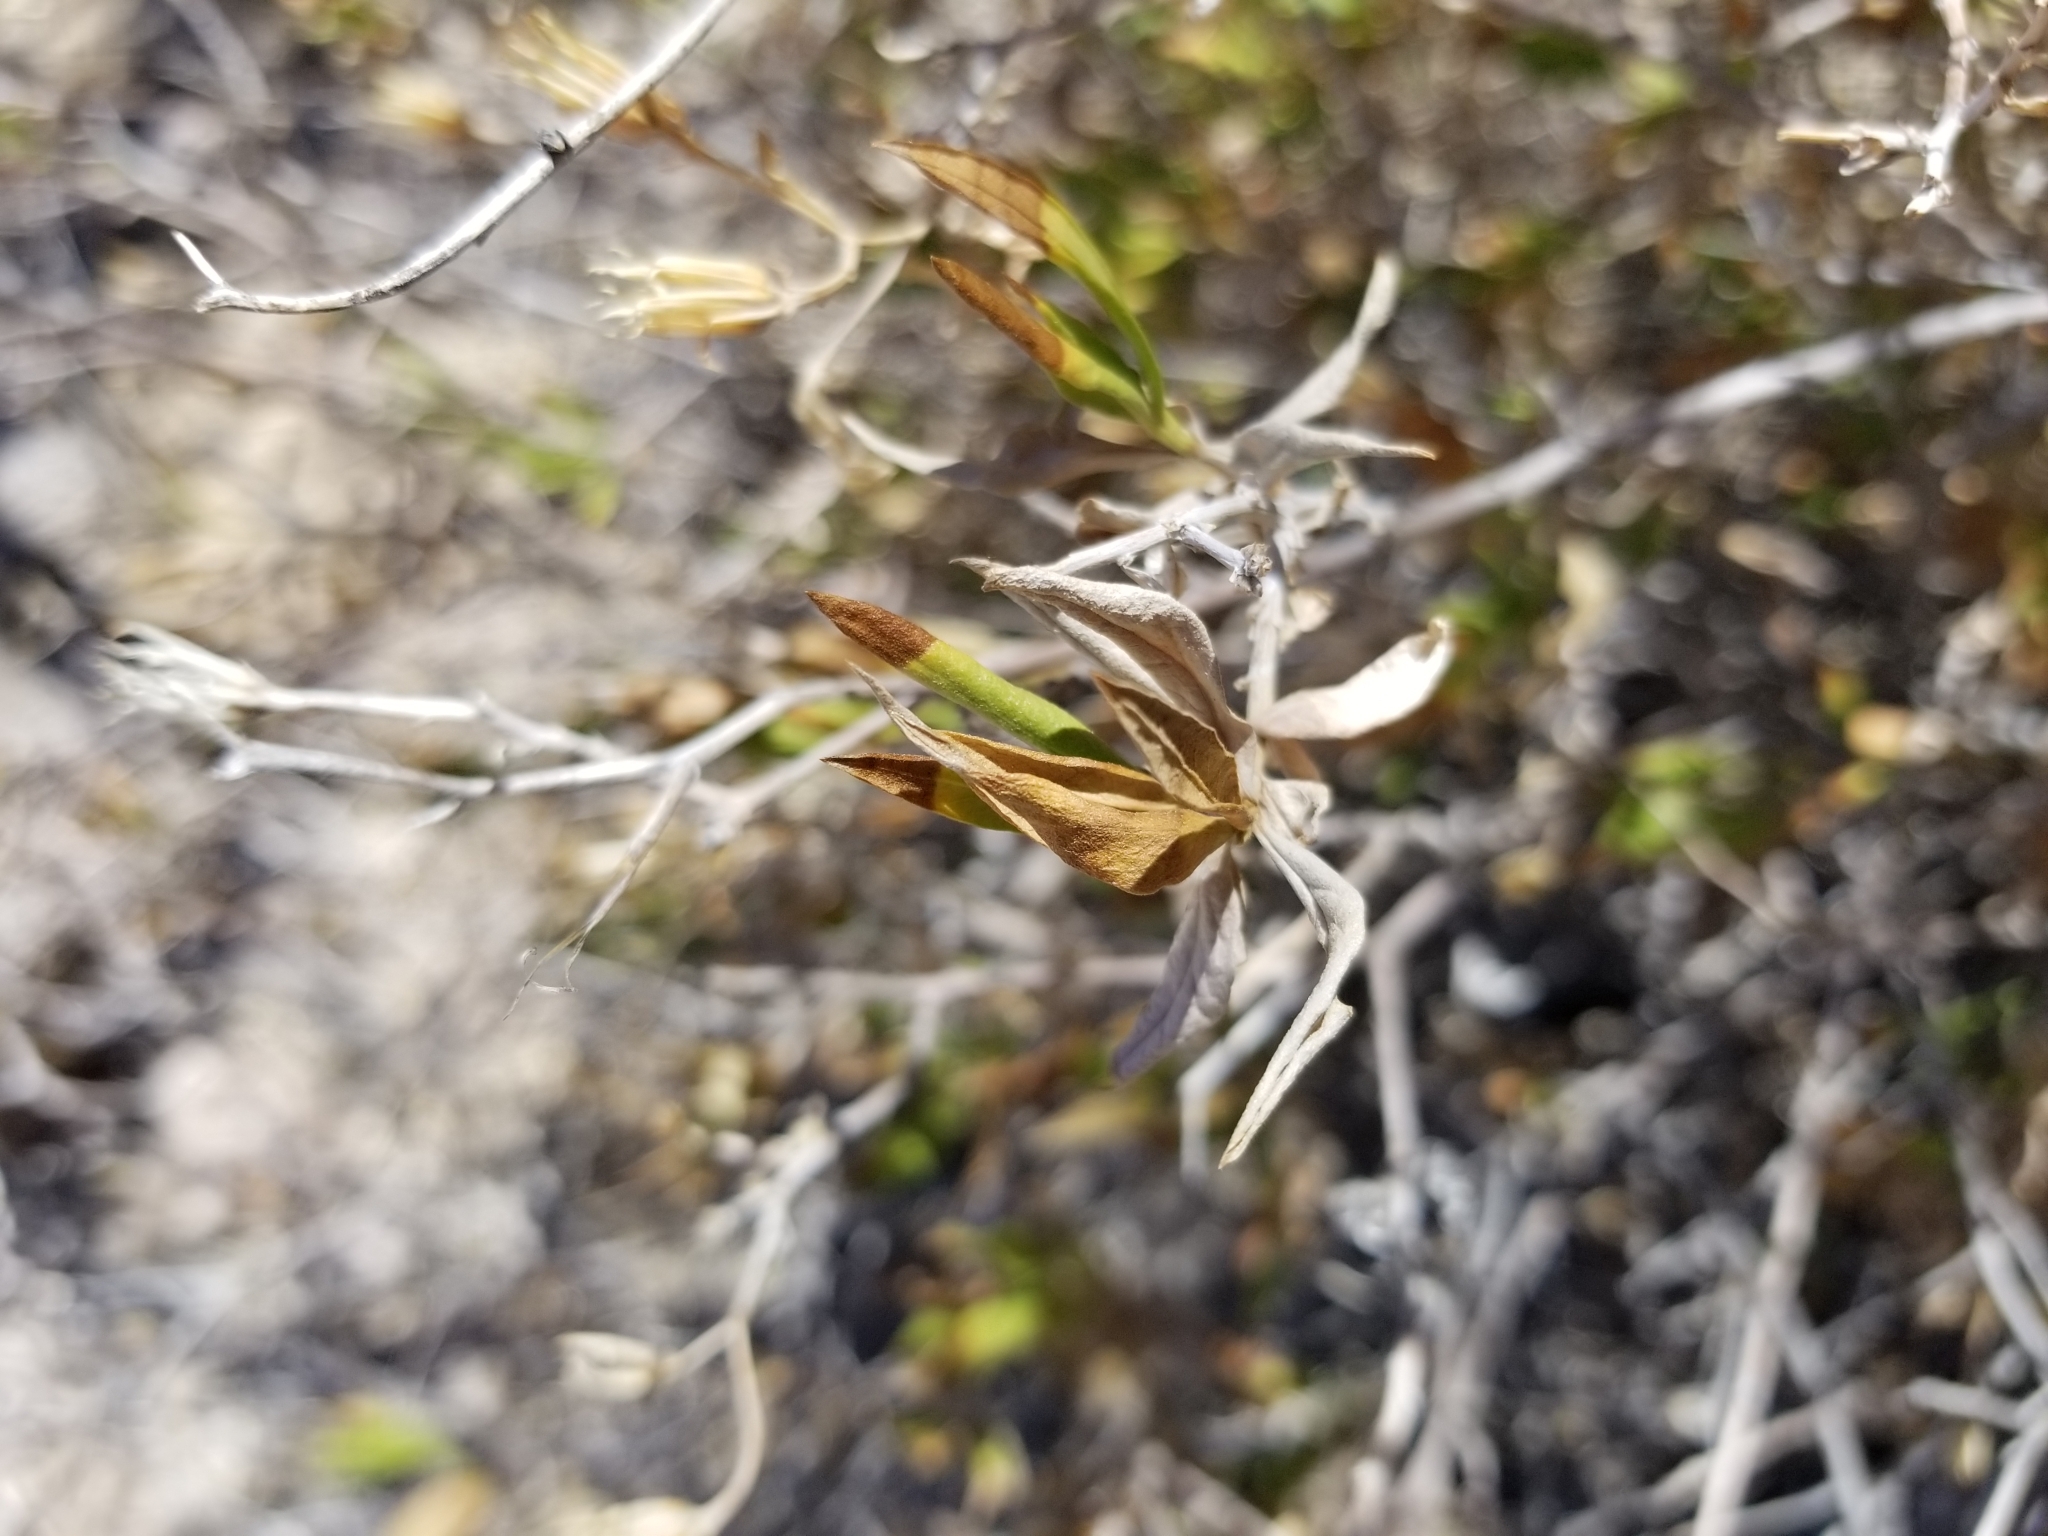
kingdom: Plantae
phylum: Tracheophyta
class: Magnoliopsida
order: Asterales
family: Asteraceae
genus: Trixis
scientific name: Trixis californica
